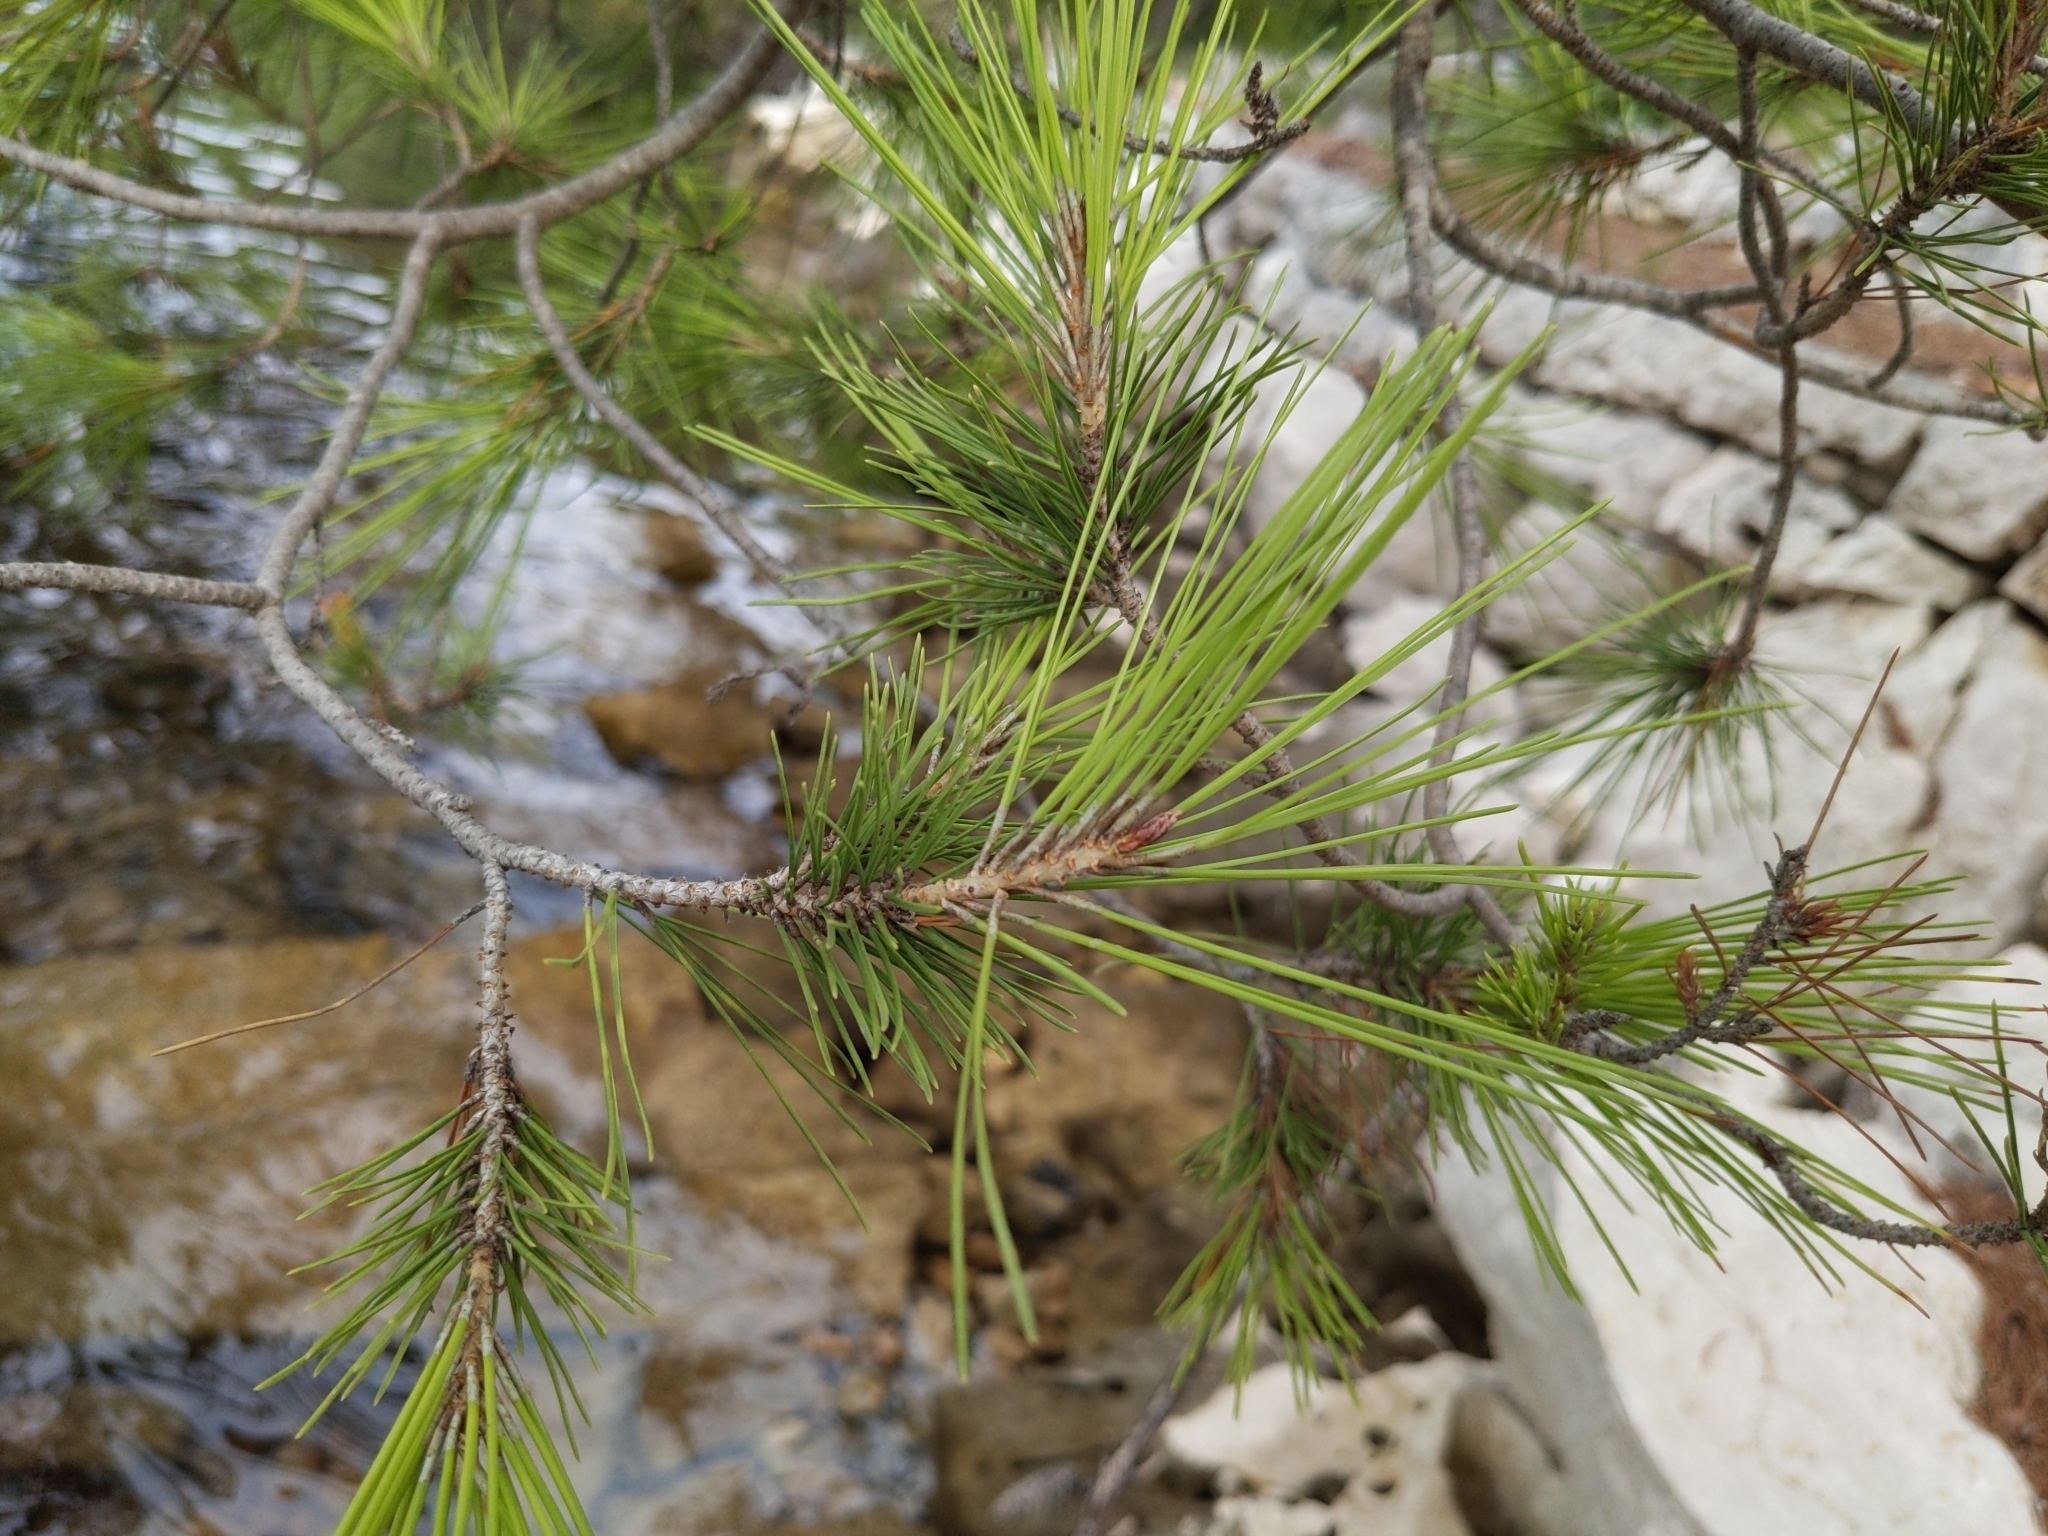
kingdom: Plantae
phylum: Tracheophyta
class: Pinopsida
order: Pinales
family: Pinaceae
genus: Pinus
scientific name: Pinus halepensis
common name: Aleppo pine
